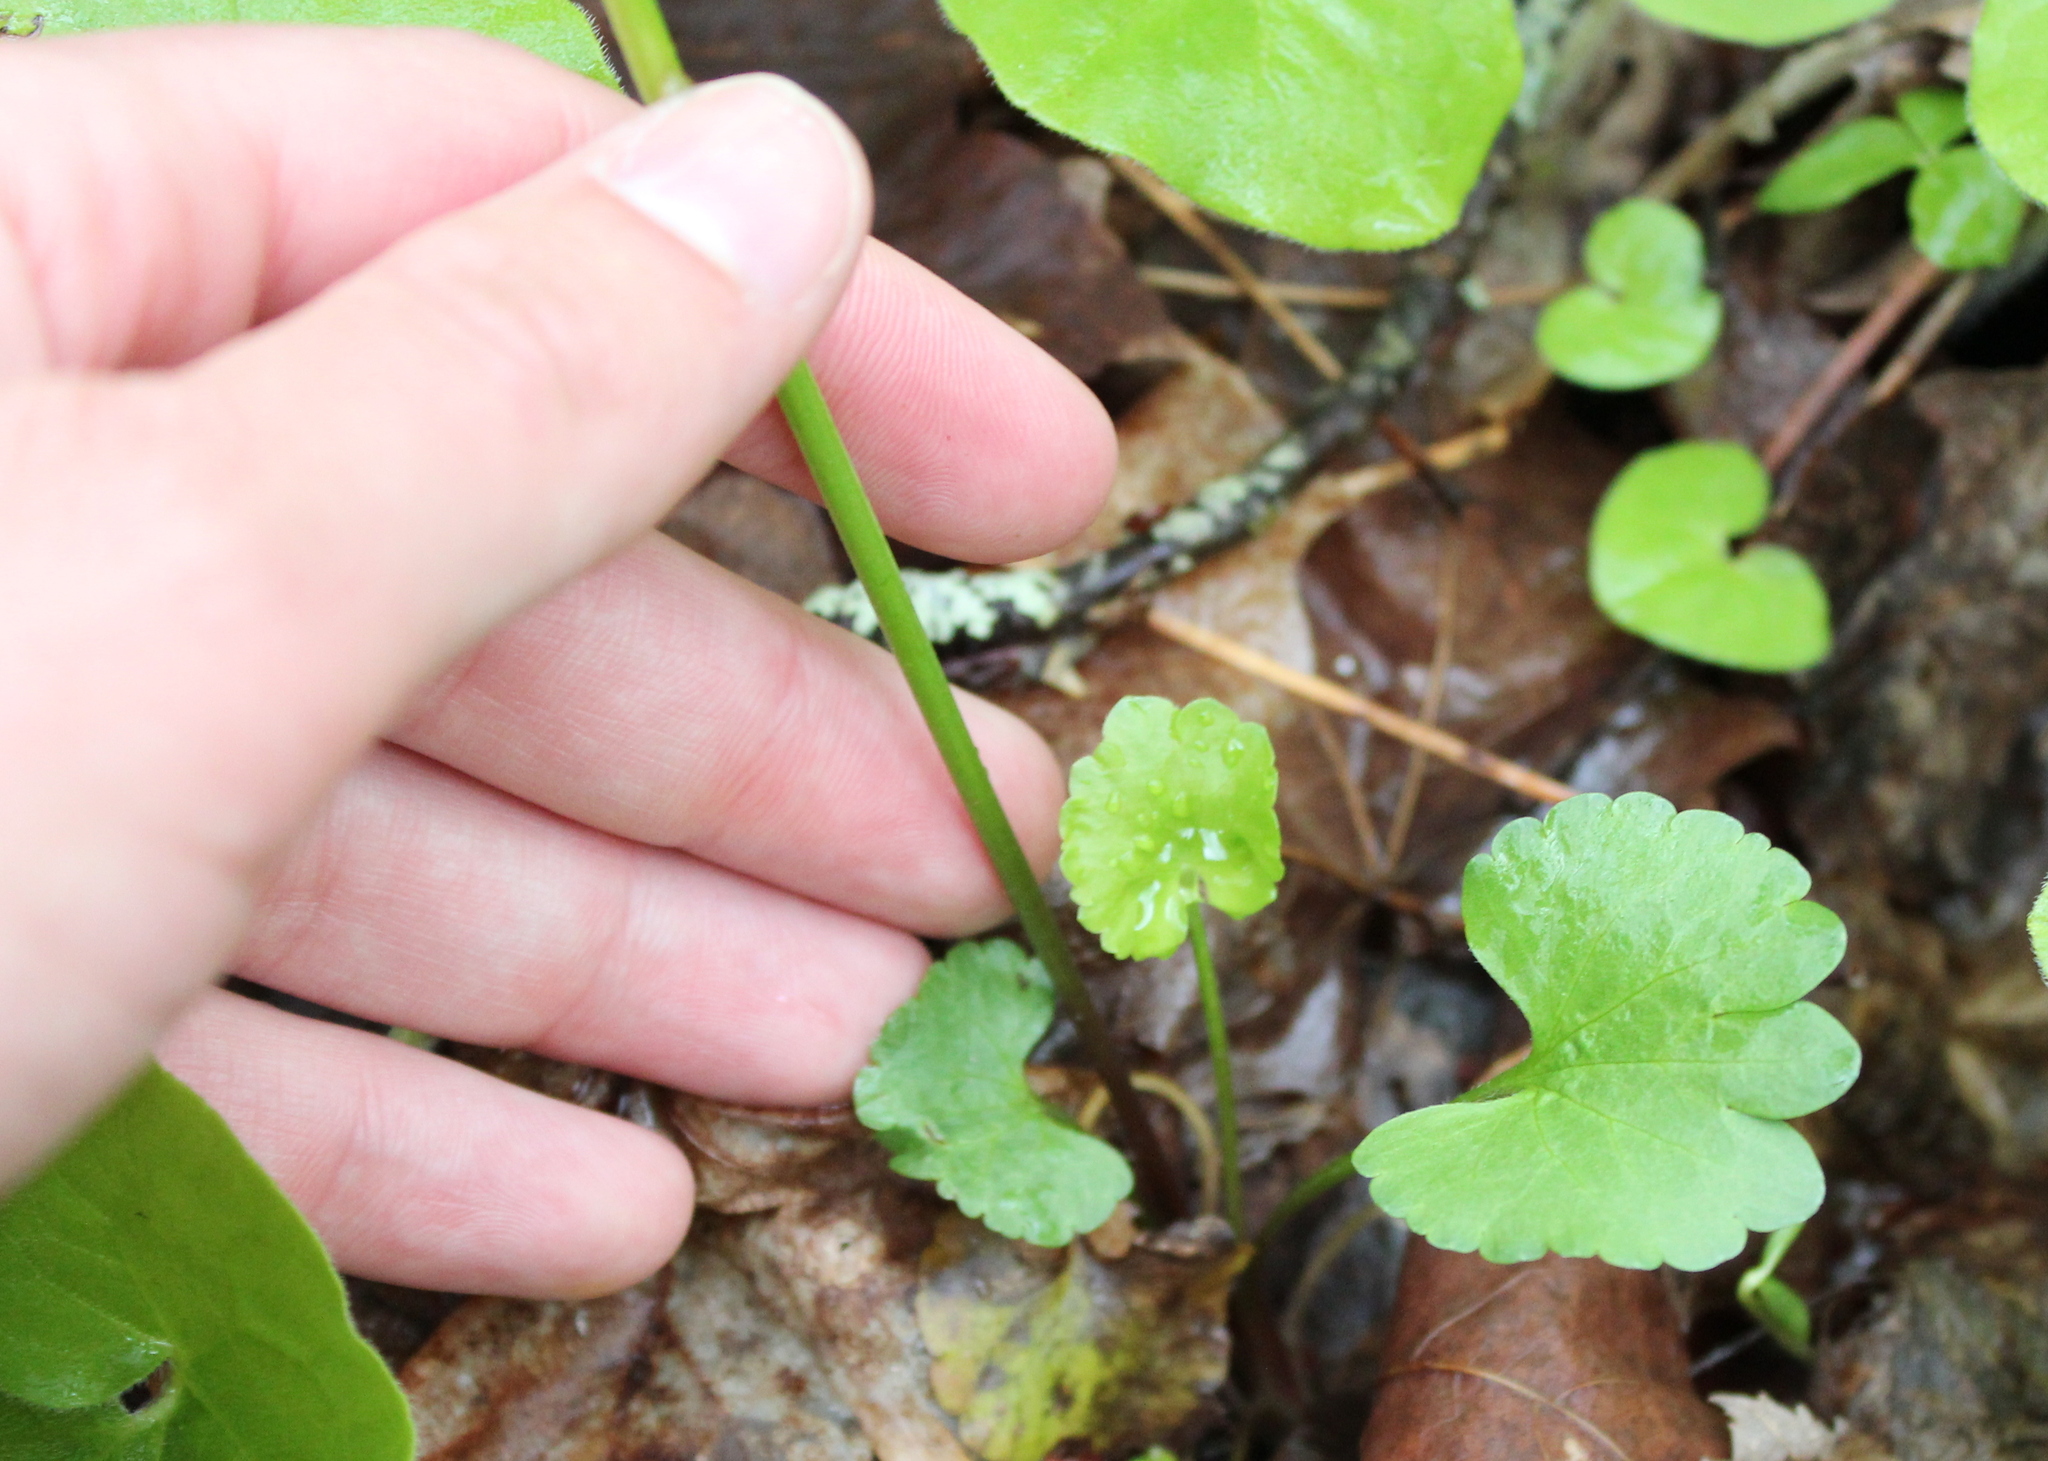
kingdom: Plantae
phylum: Tracheophyta
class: Magnoliopsida
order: Ranunculales
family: Ranunculaceae
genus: Ranunculus
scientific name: Ranunculus abortivus
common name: Early wood buttercup
